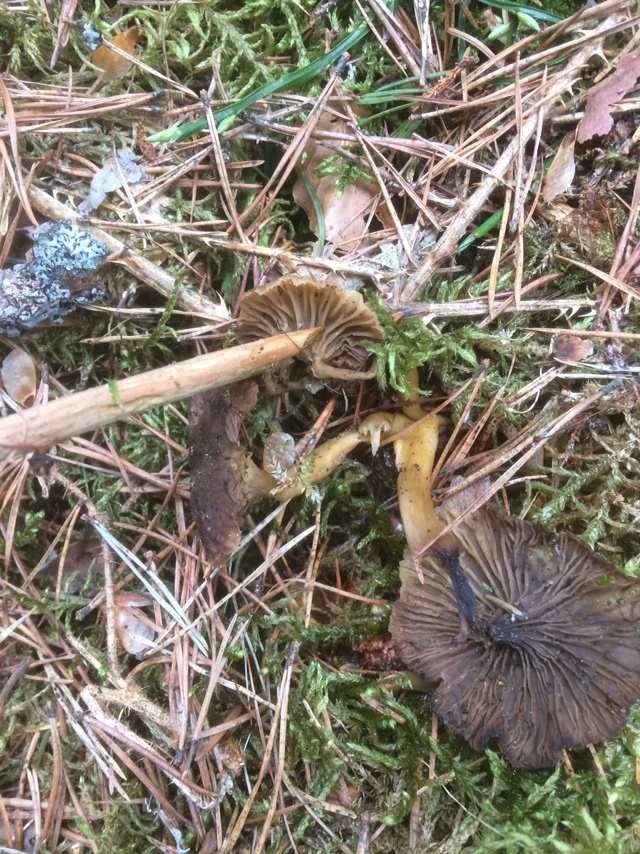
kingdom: Fungi
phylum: Basidiomycota
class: Agaricomycetes
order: Cantharellales
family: Hydnaceae
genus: Craterellus
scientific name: Craterellus tubaeformis
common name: Yellowfoot
